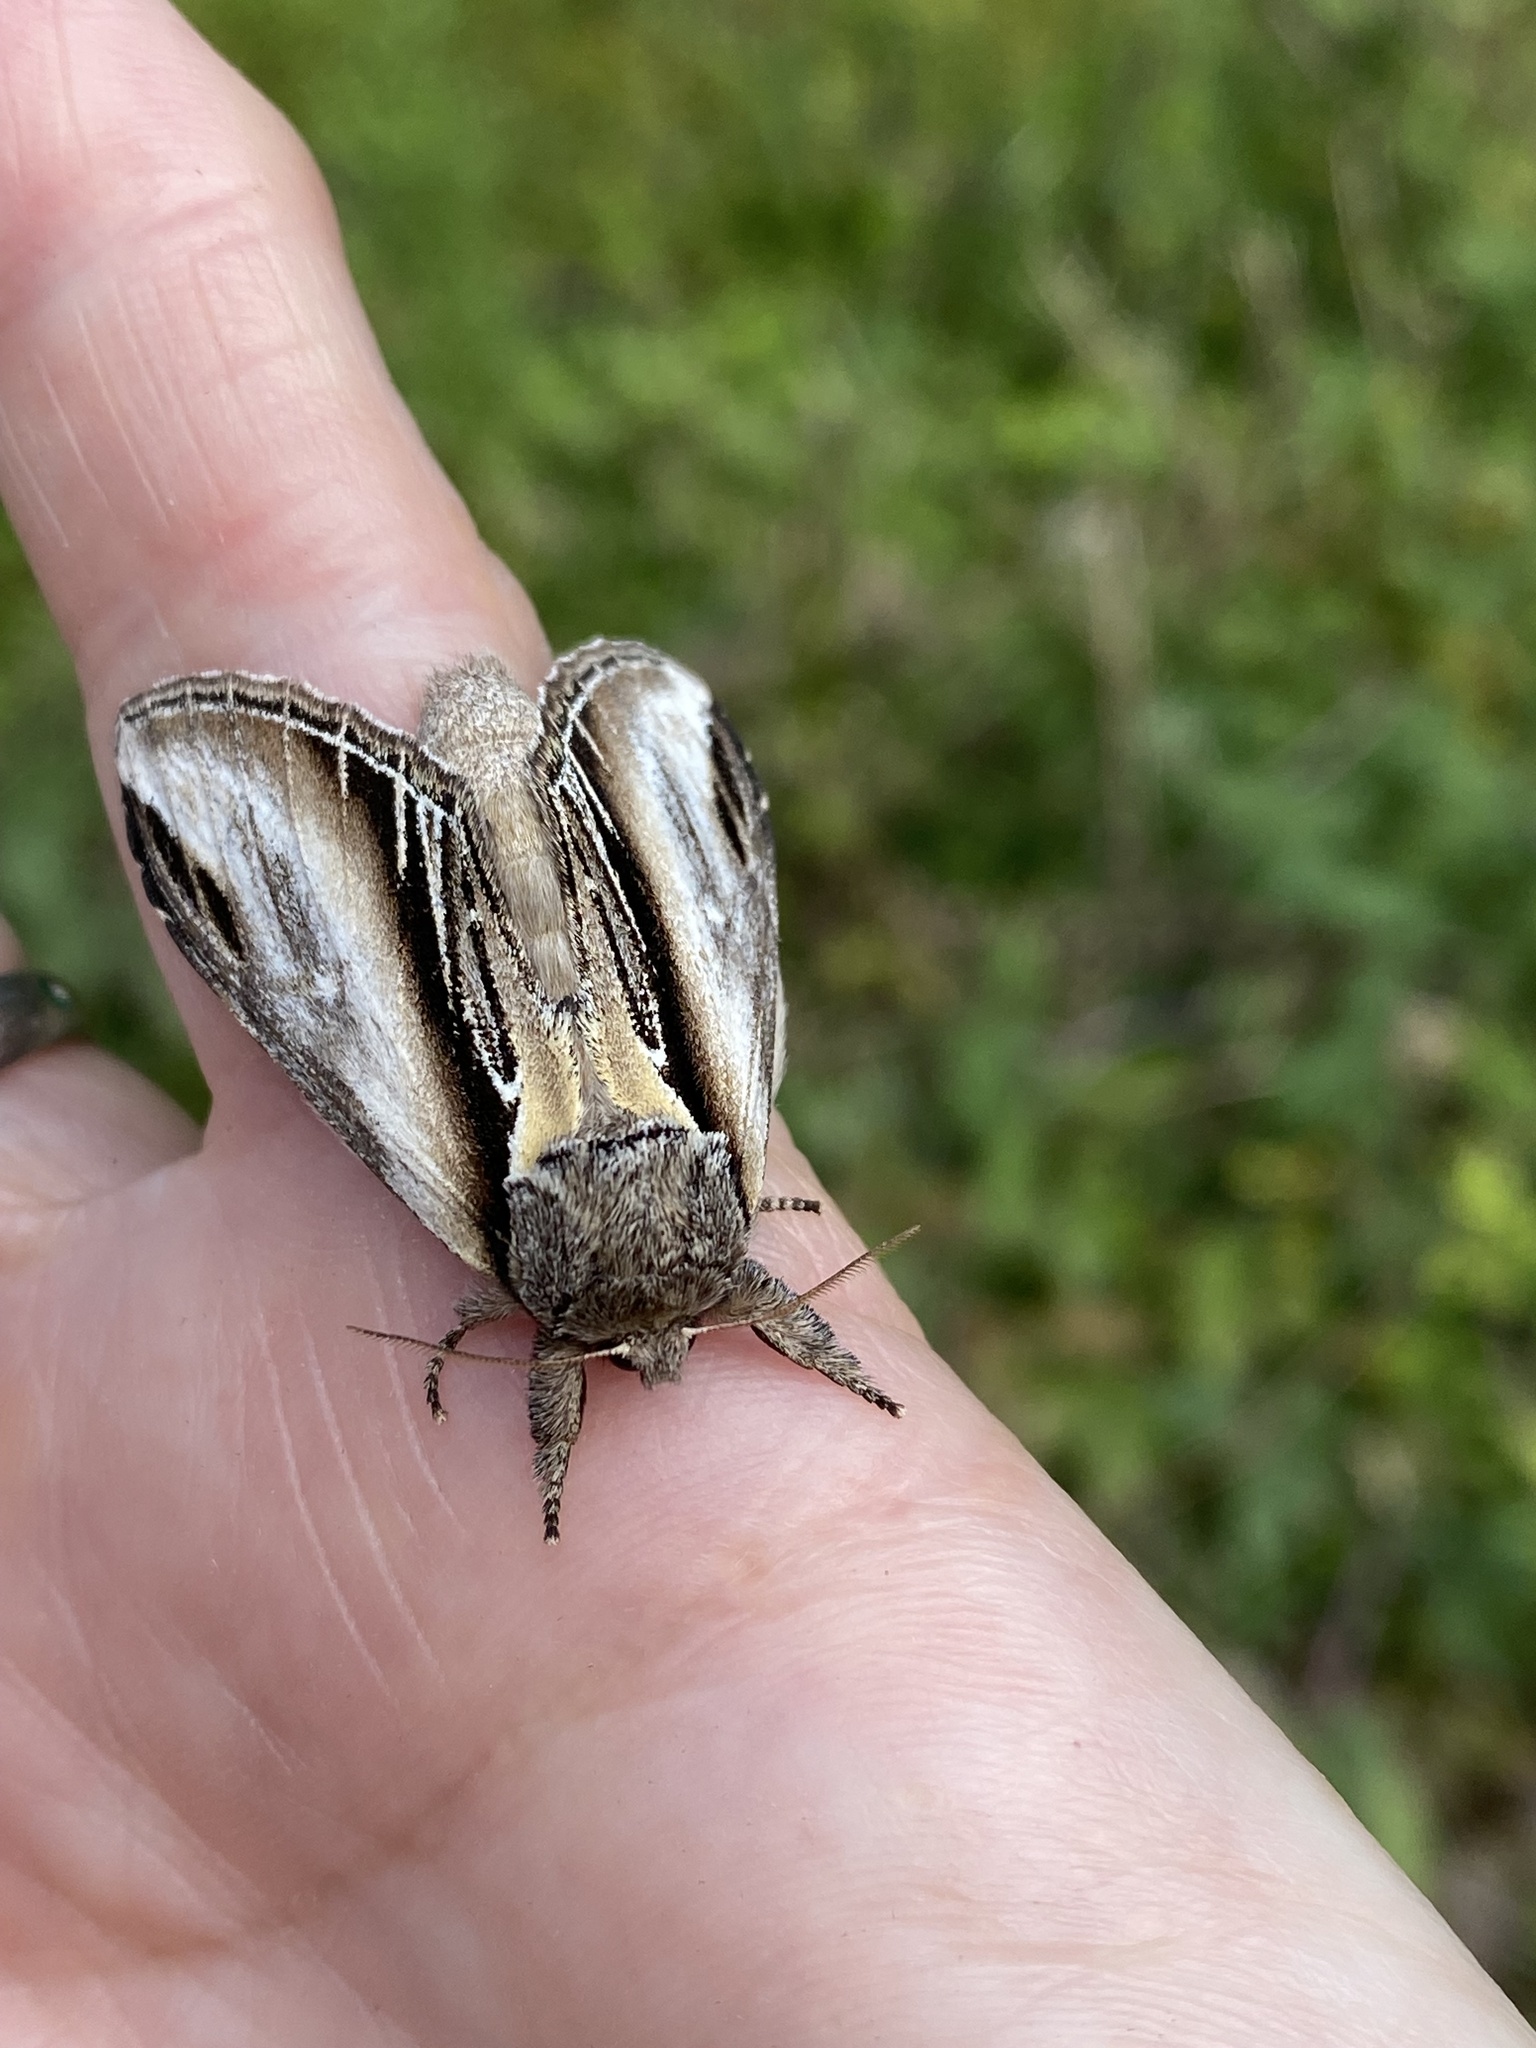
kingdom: Animalia
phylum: Arthropoda
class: Insecta
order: Lepidoptera
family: Notodontidae
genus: Pheosia
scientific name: Pheosia tremula
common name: Swallow prominent
